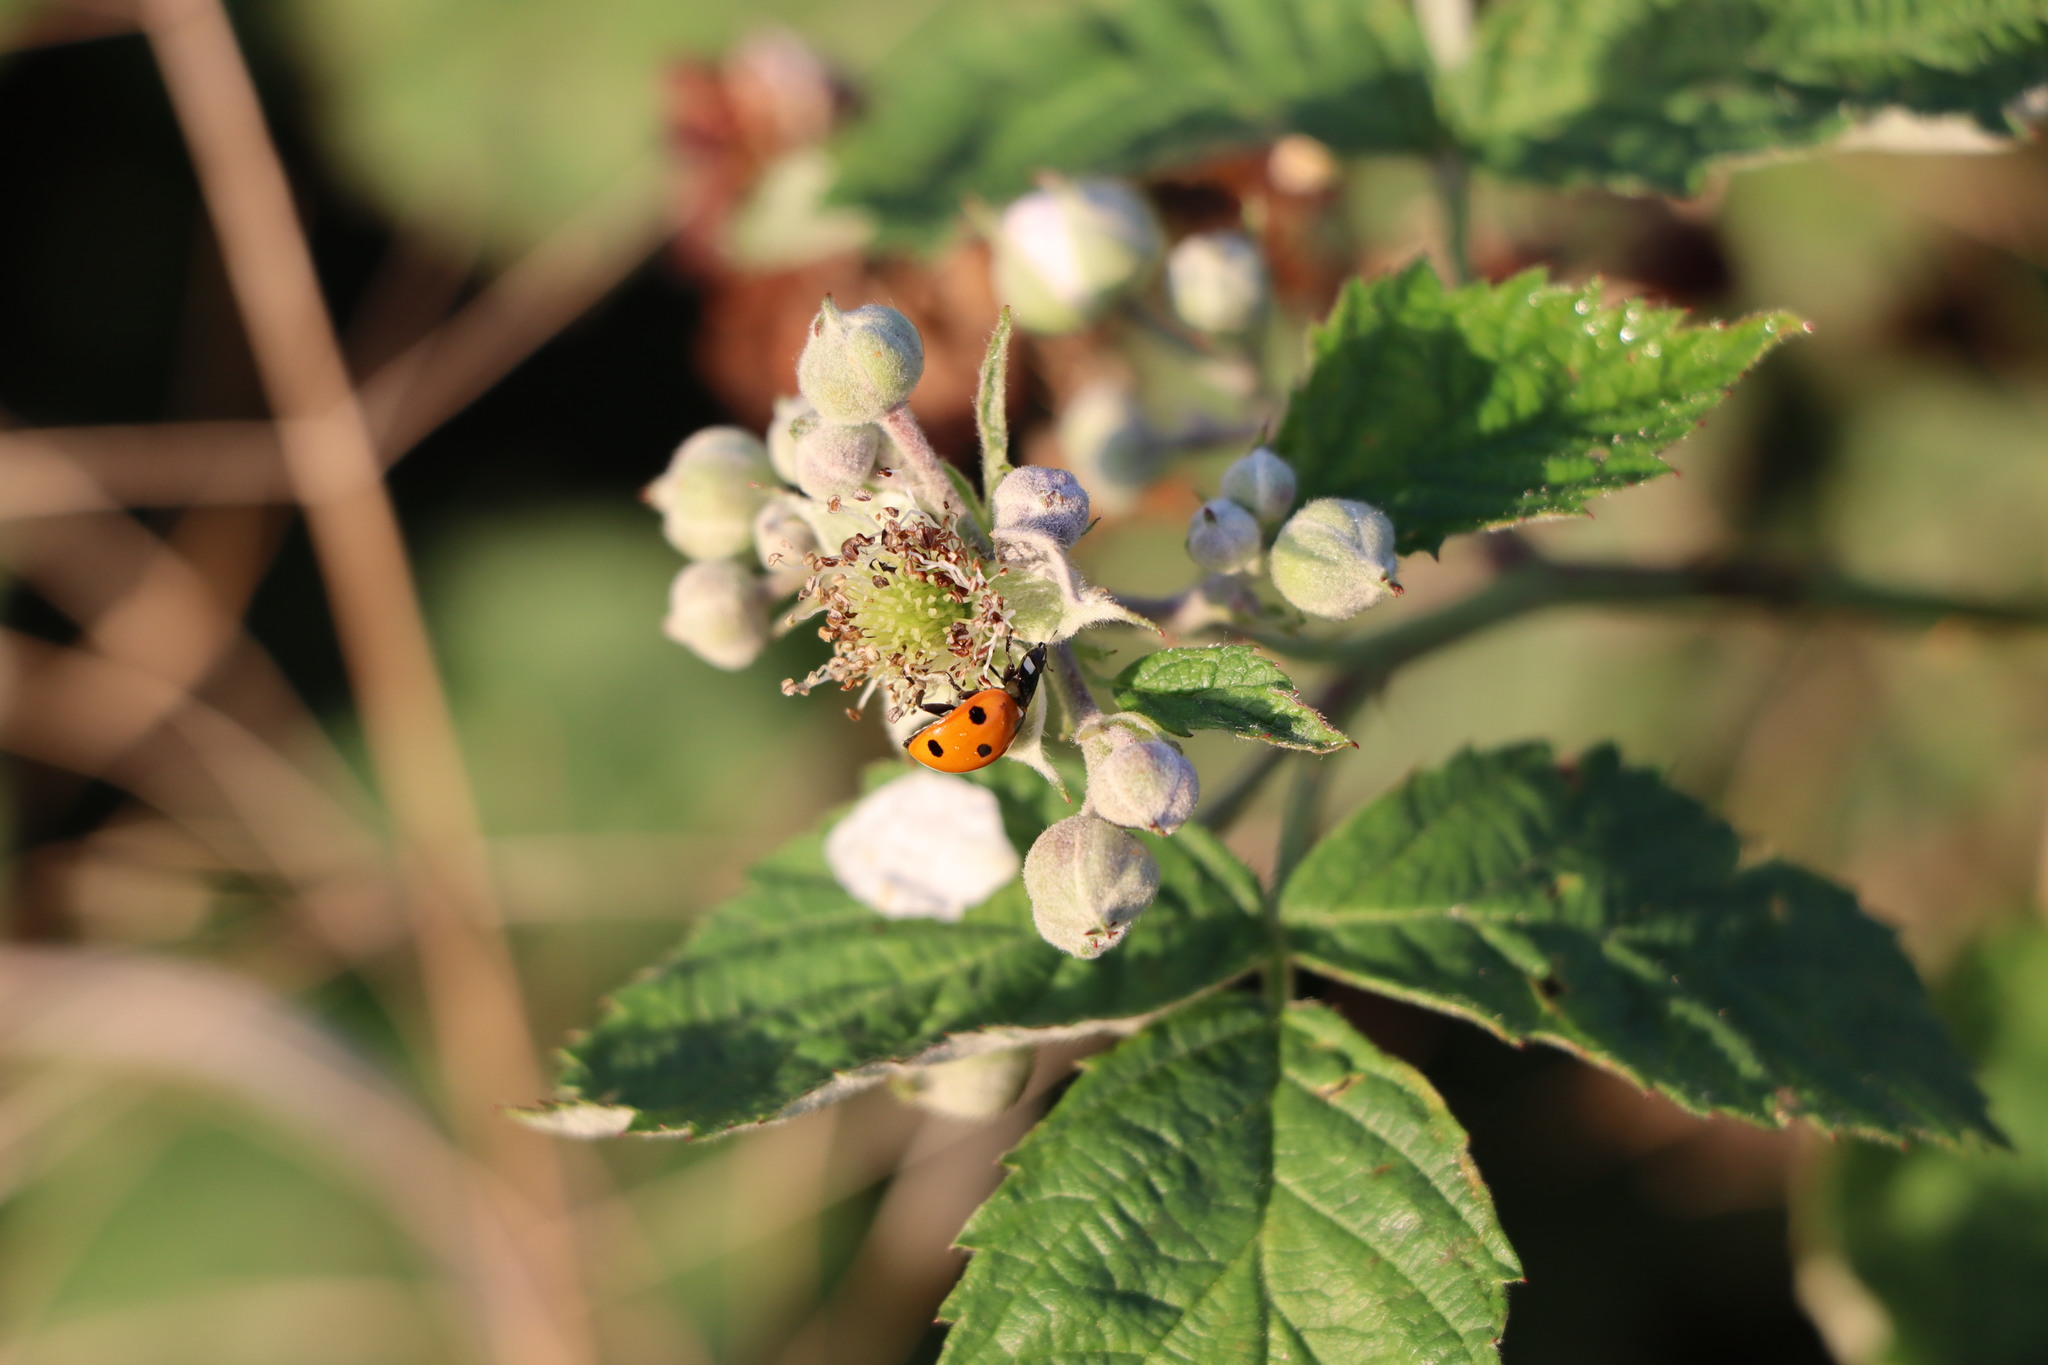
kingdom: Animalia
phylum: Arthropoda
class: Insecta
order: Coleoptera
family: Coccinellidae
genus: Coccinella
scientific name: Coccinella septempunctata
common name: Sevenspotted lady beetle
